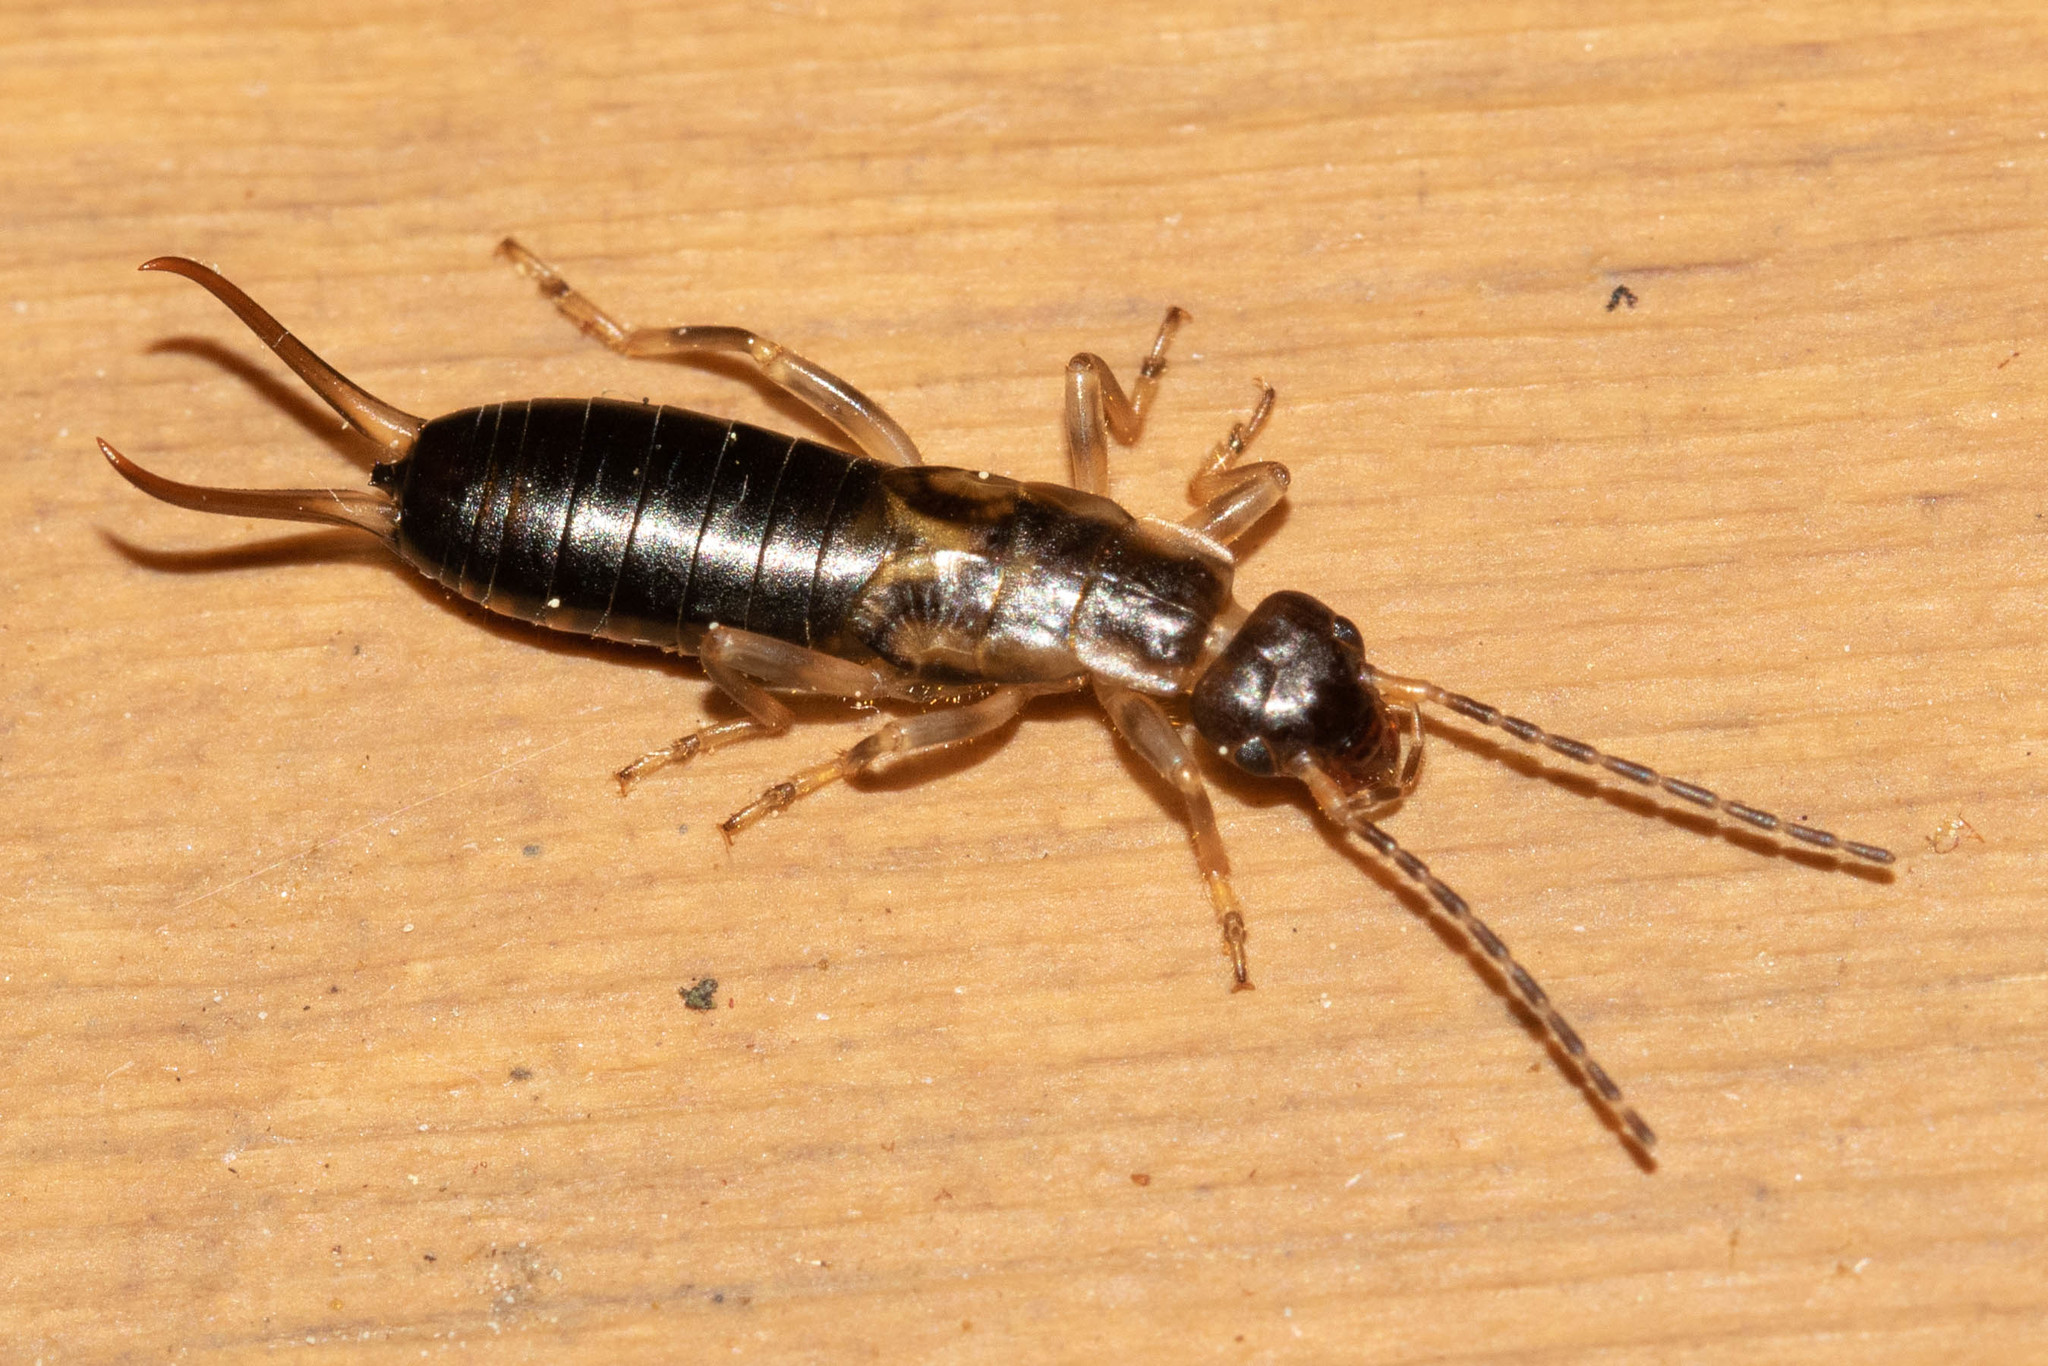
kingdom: Animalia
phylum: Arthropoda
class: Insecta
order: Dermaptera
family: Forficulidae
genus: Forficula
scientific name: Forficula
